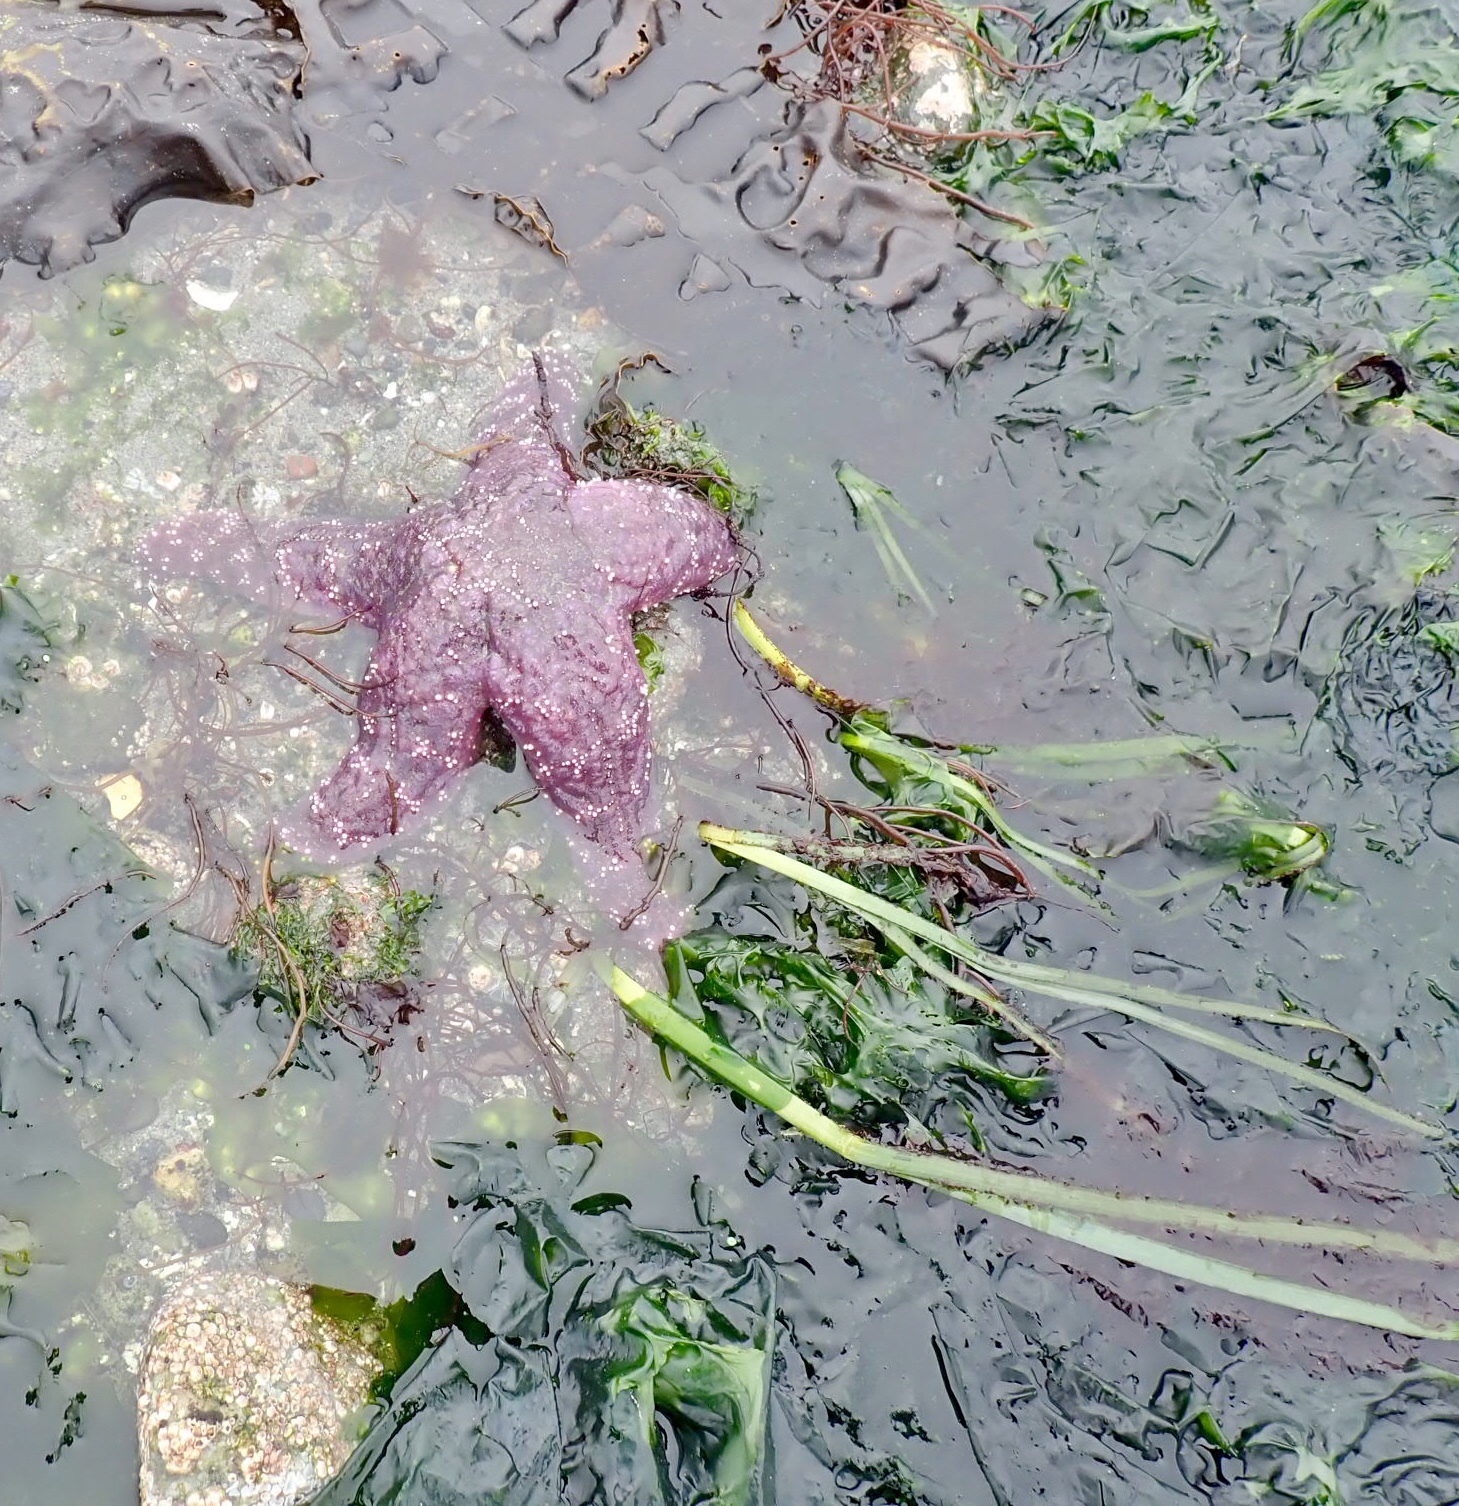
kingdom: Animalia
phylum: Echinodermata
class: Asteroidea
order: Forcipulatida
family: Asteriidae
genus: Pisaster
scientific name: Pisaster ochraceus
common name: Ochre stars
